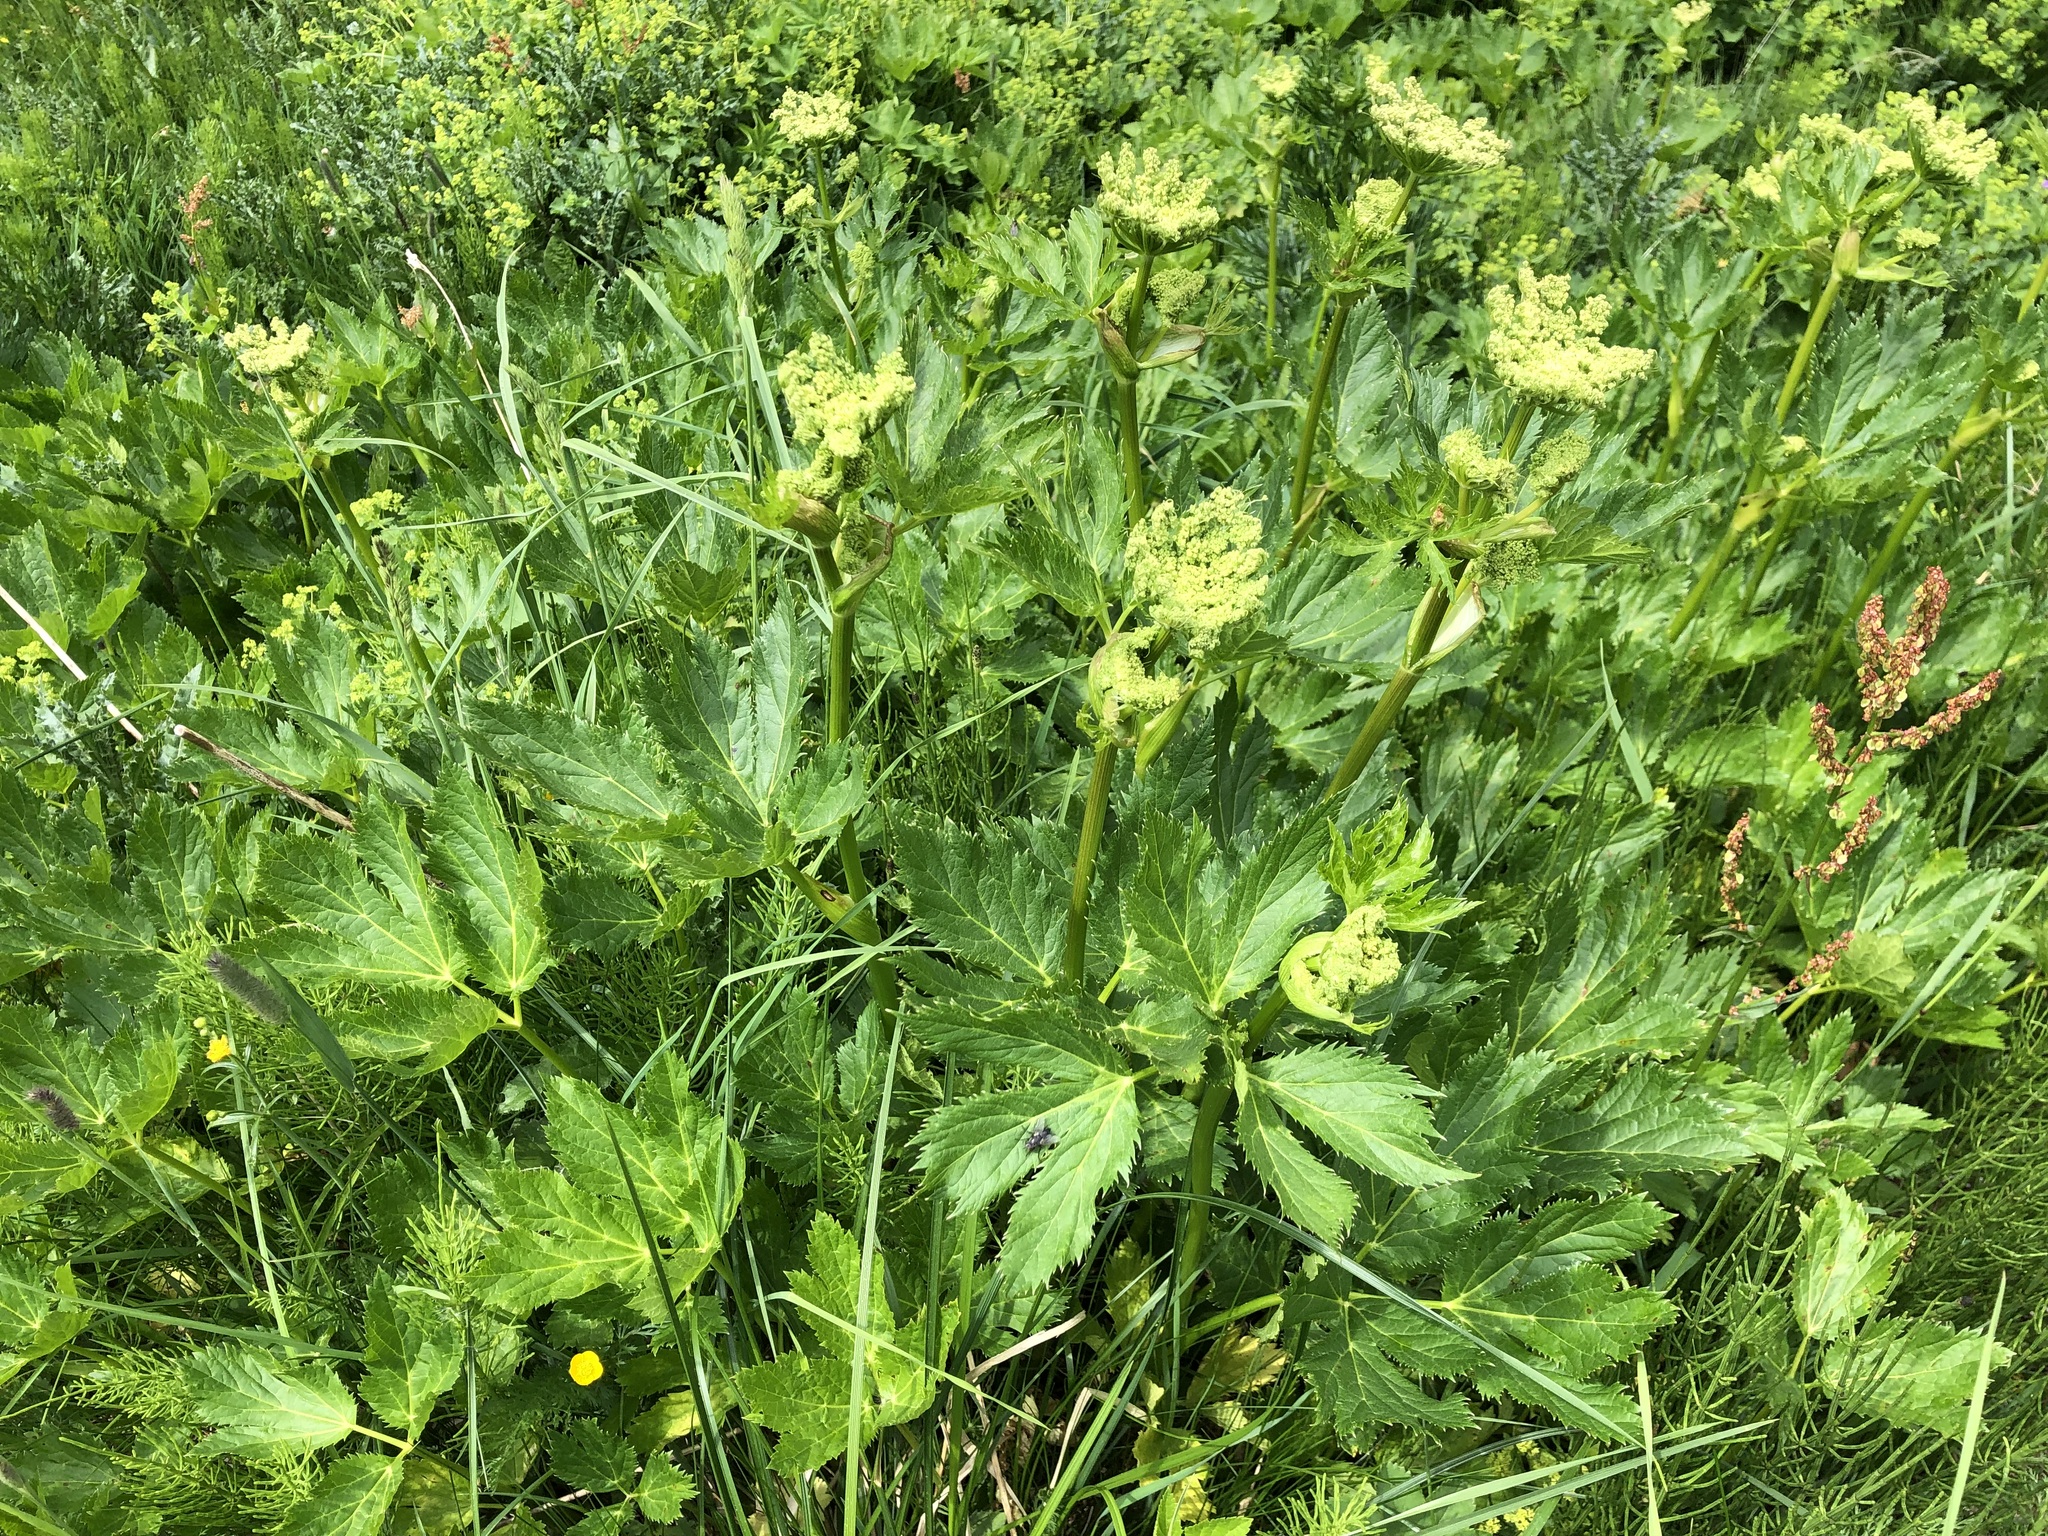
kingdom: Plantae
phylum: Tracheophyta
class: Magnoliopsida
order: Apiales
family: Apiaceae
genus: Imperatoria
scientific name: Imperatoria ostruthium
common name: Masterwort
